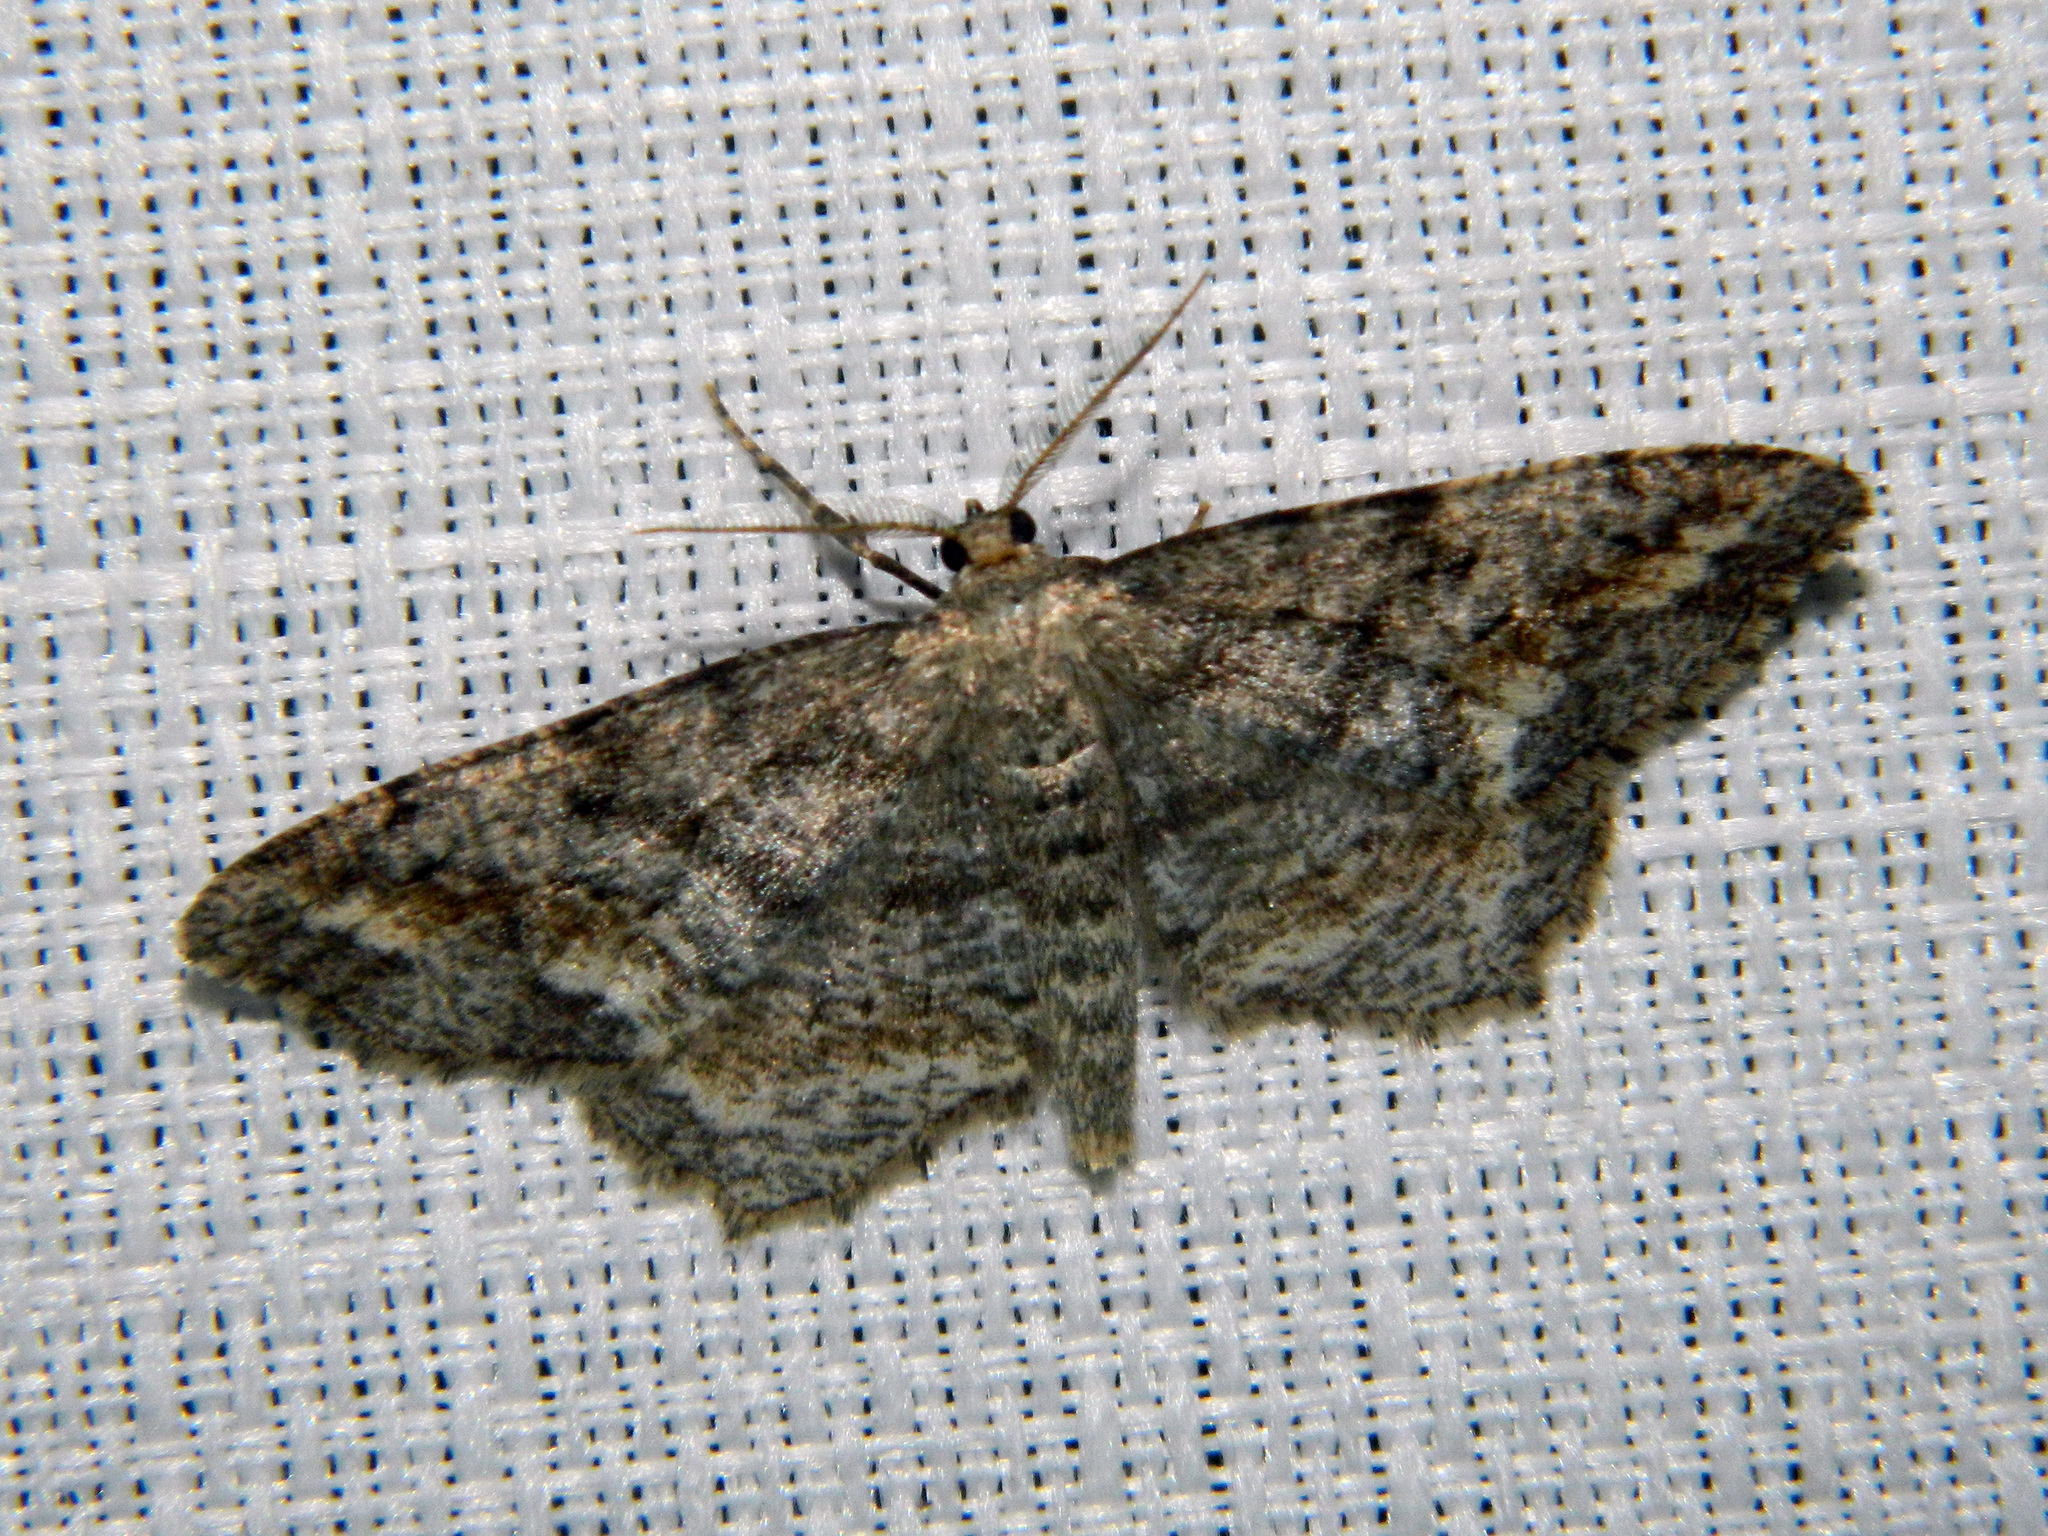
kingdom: Animalia
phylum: Arthropoda
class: Insecta
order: Lepidoptera
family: Geometridae
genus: Hypagyrtis
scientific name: Hypagyrtis unipunctata
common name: One-spotted variant
